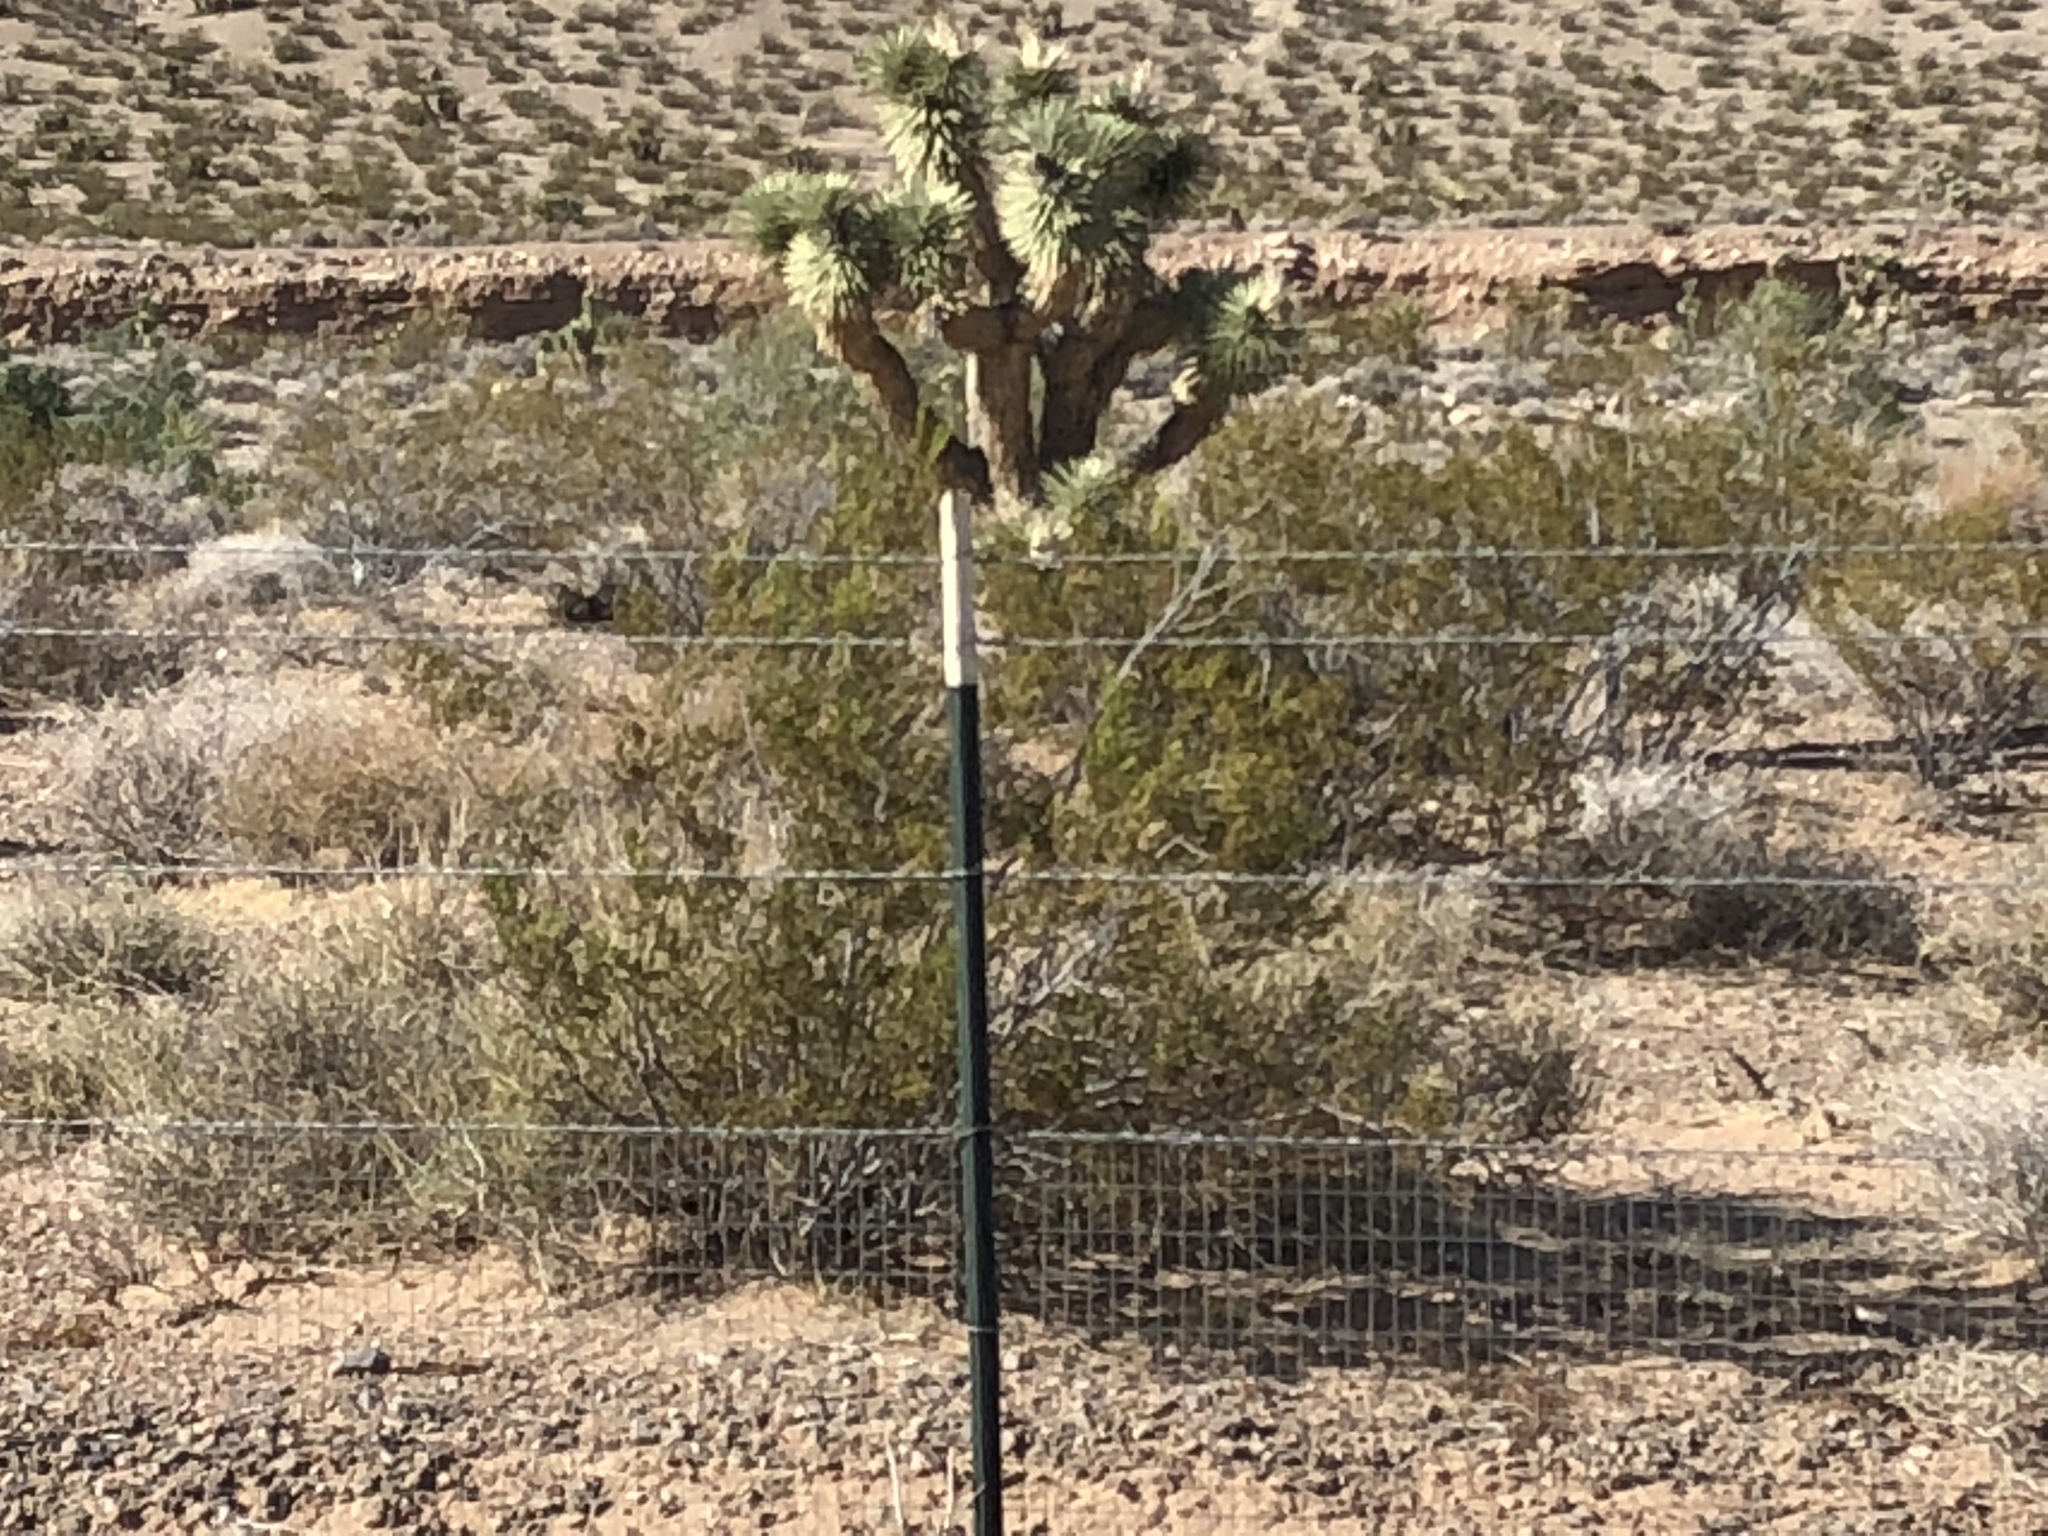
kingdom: Plantae
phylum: Tracheophyta
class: Magnoliopsida
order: Zygophyllales
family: Zygophyllaceae
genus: Larrea
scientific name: Larrea tridentata
